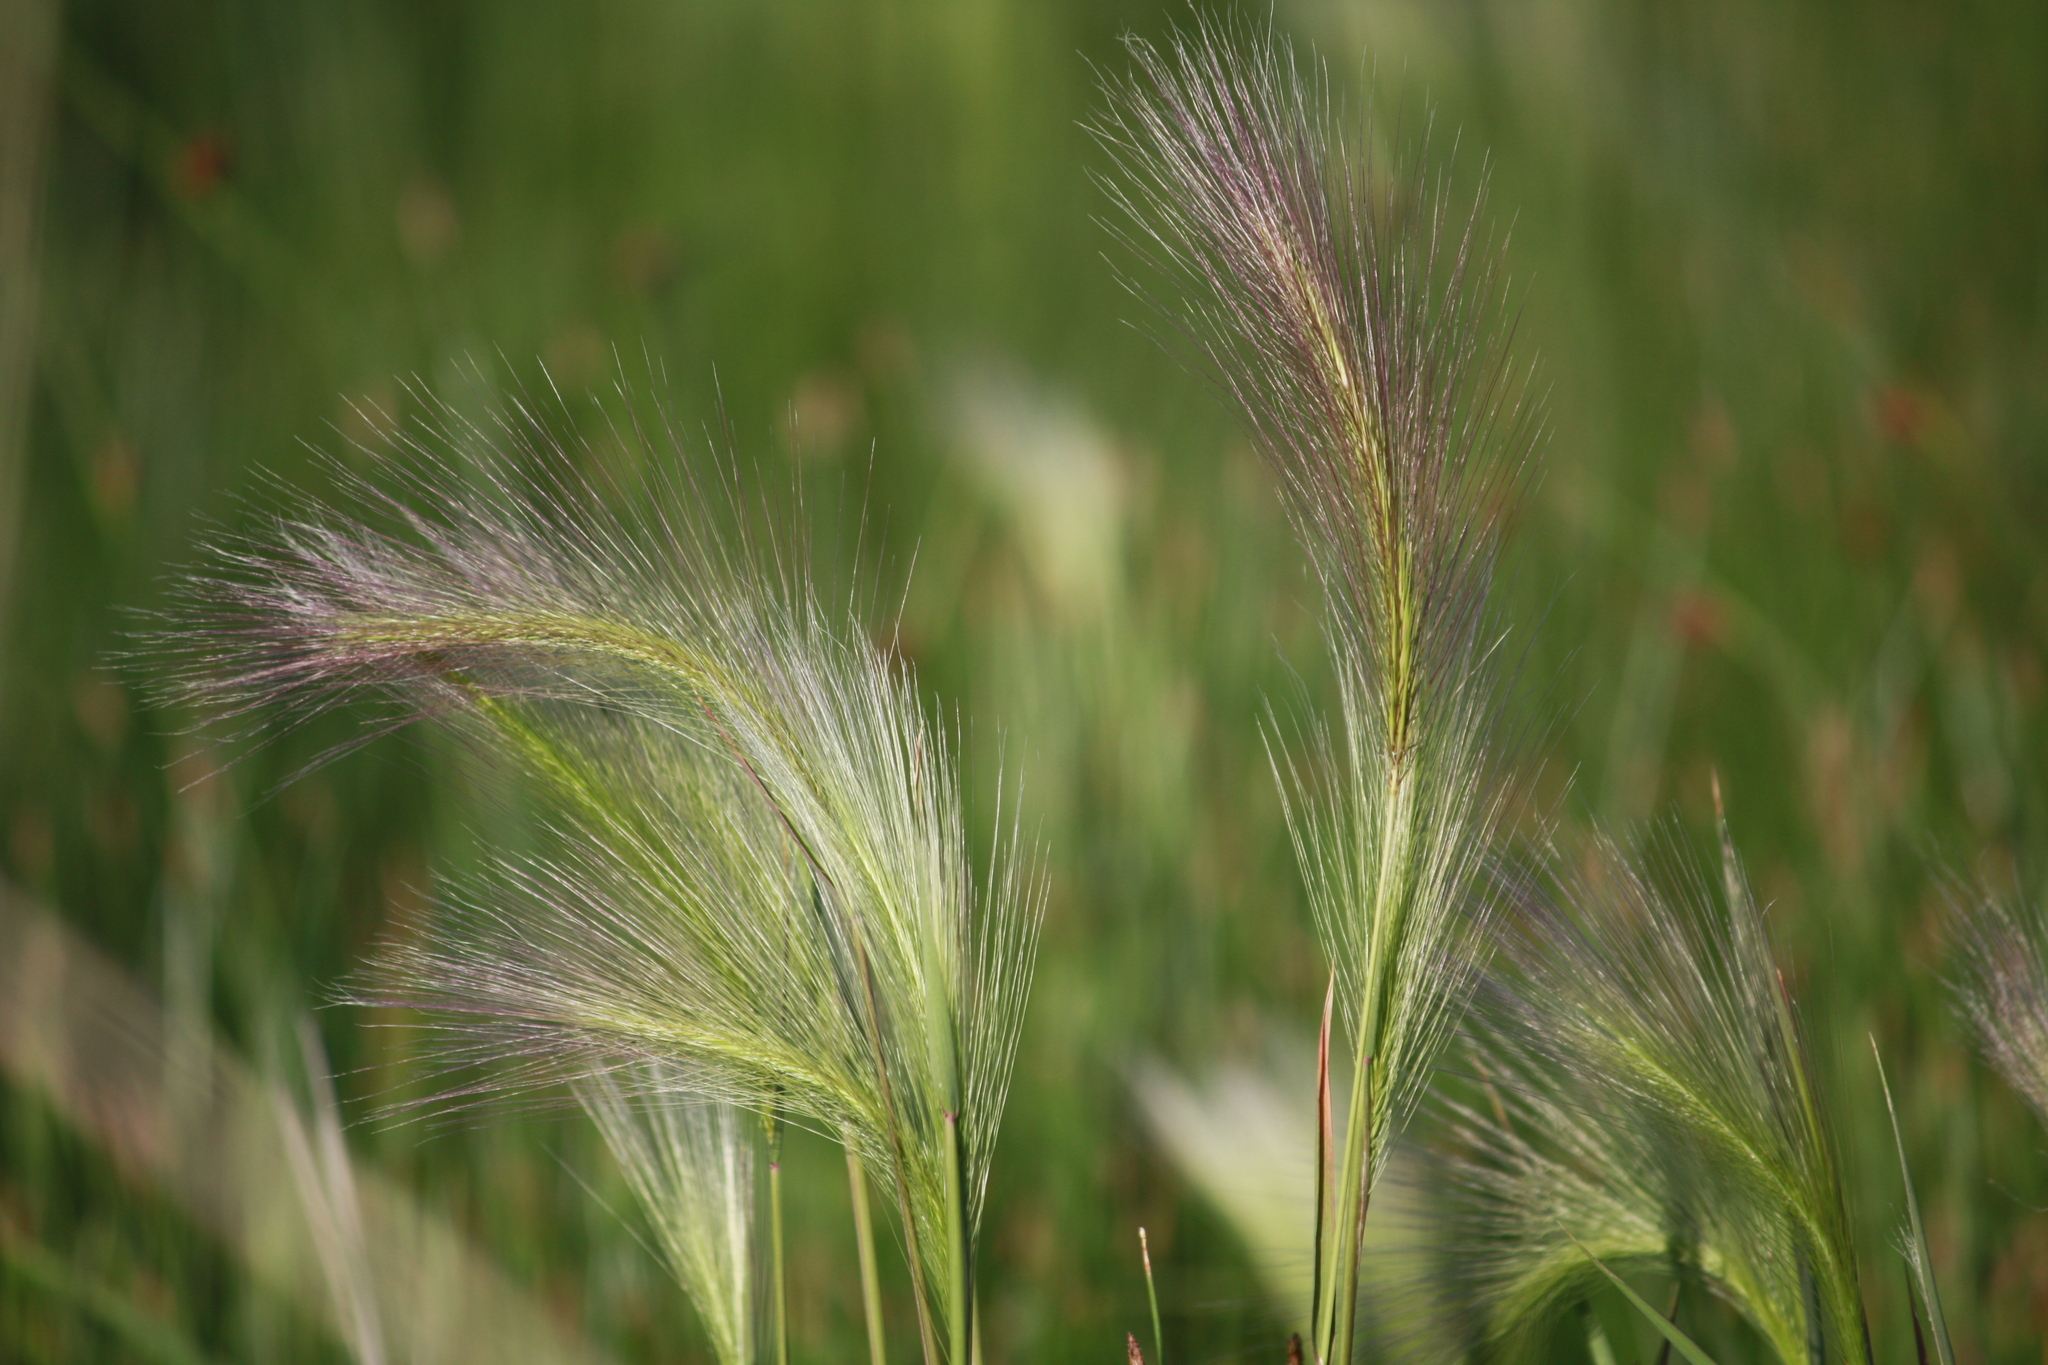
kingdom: Plantae
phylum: Tracheophyta
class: Liliopsida
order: Poales
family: Poaceae
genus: Hordeum
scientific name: Hordeum jubatum
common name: Foxtail barley
